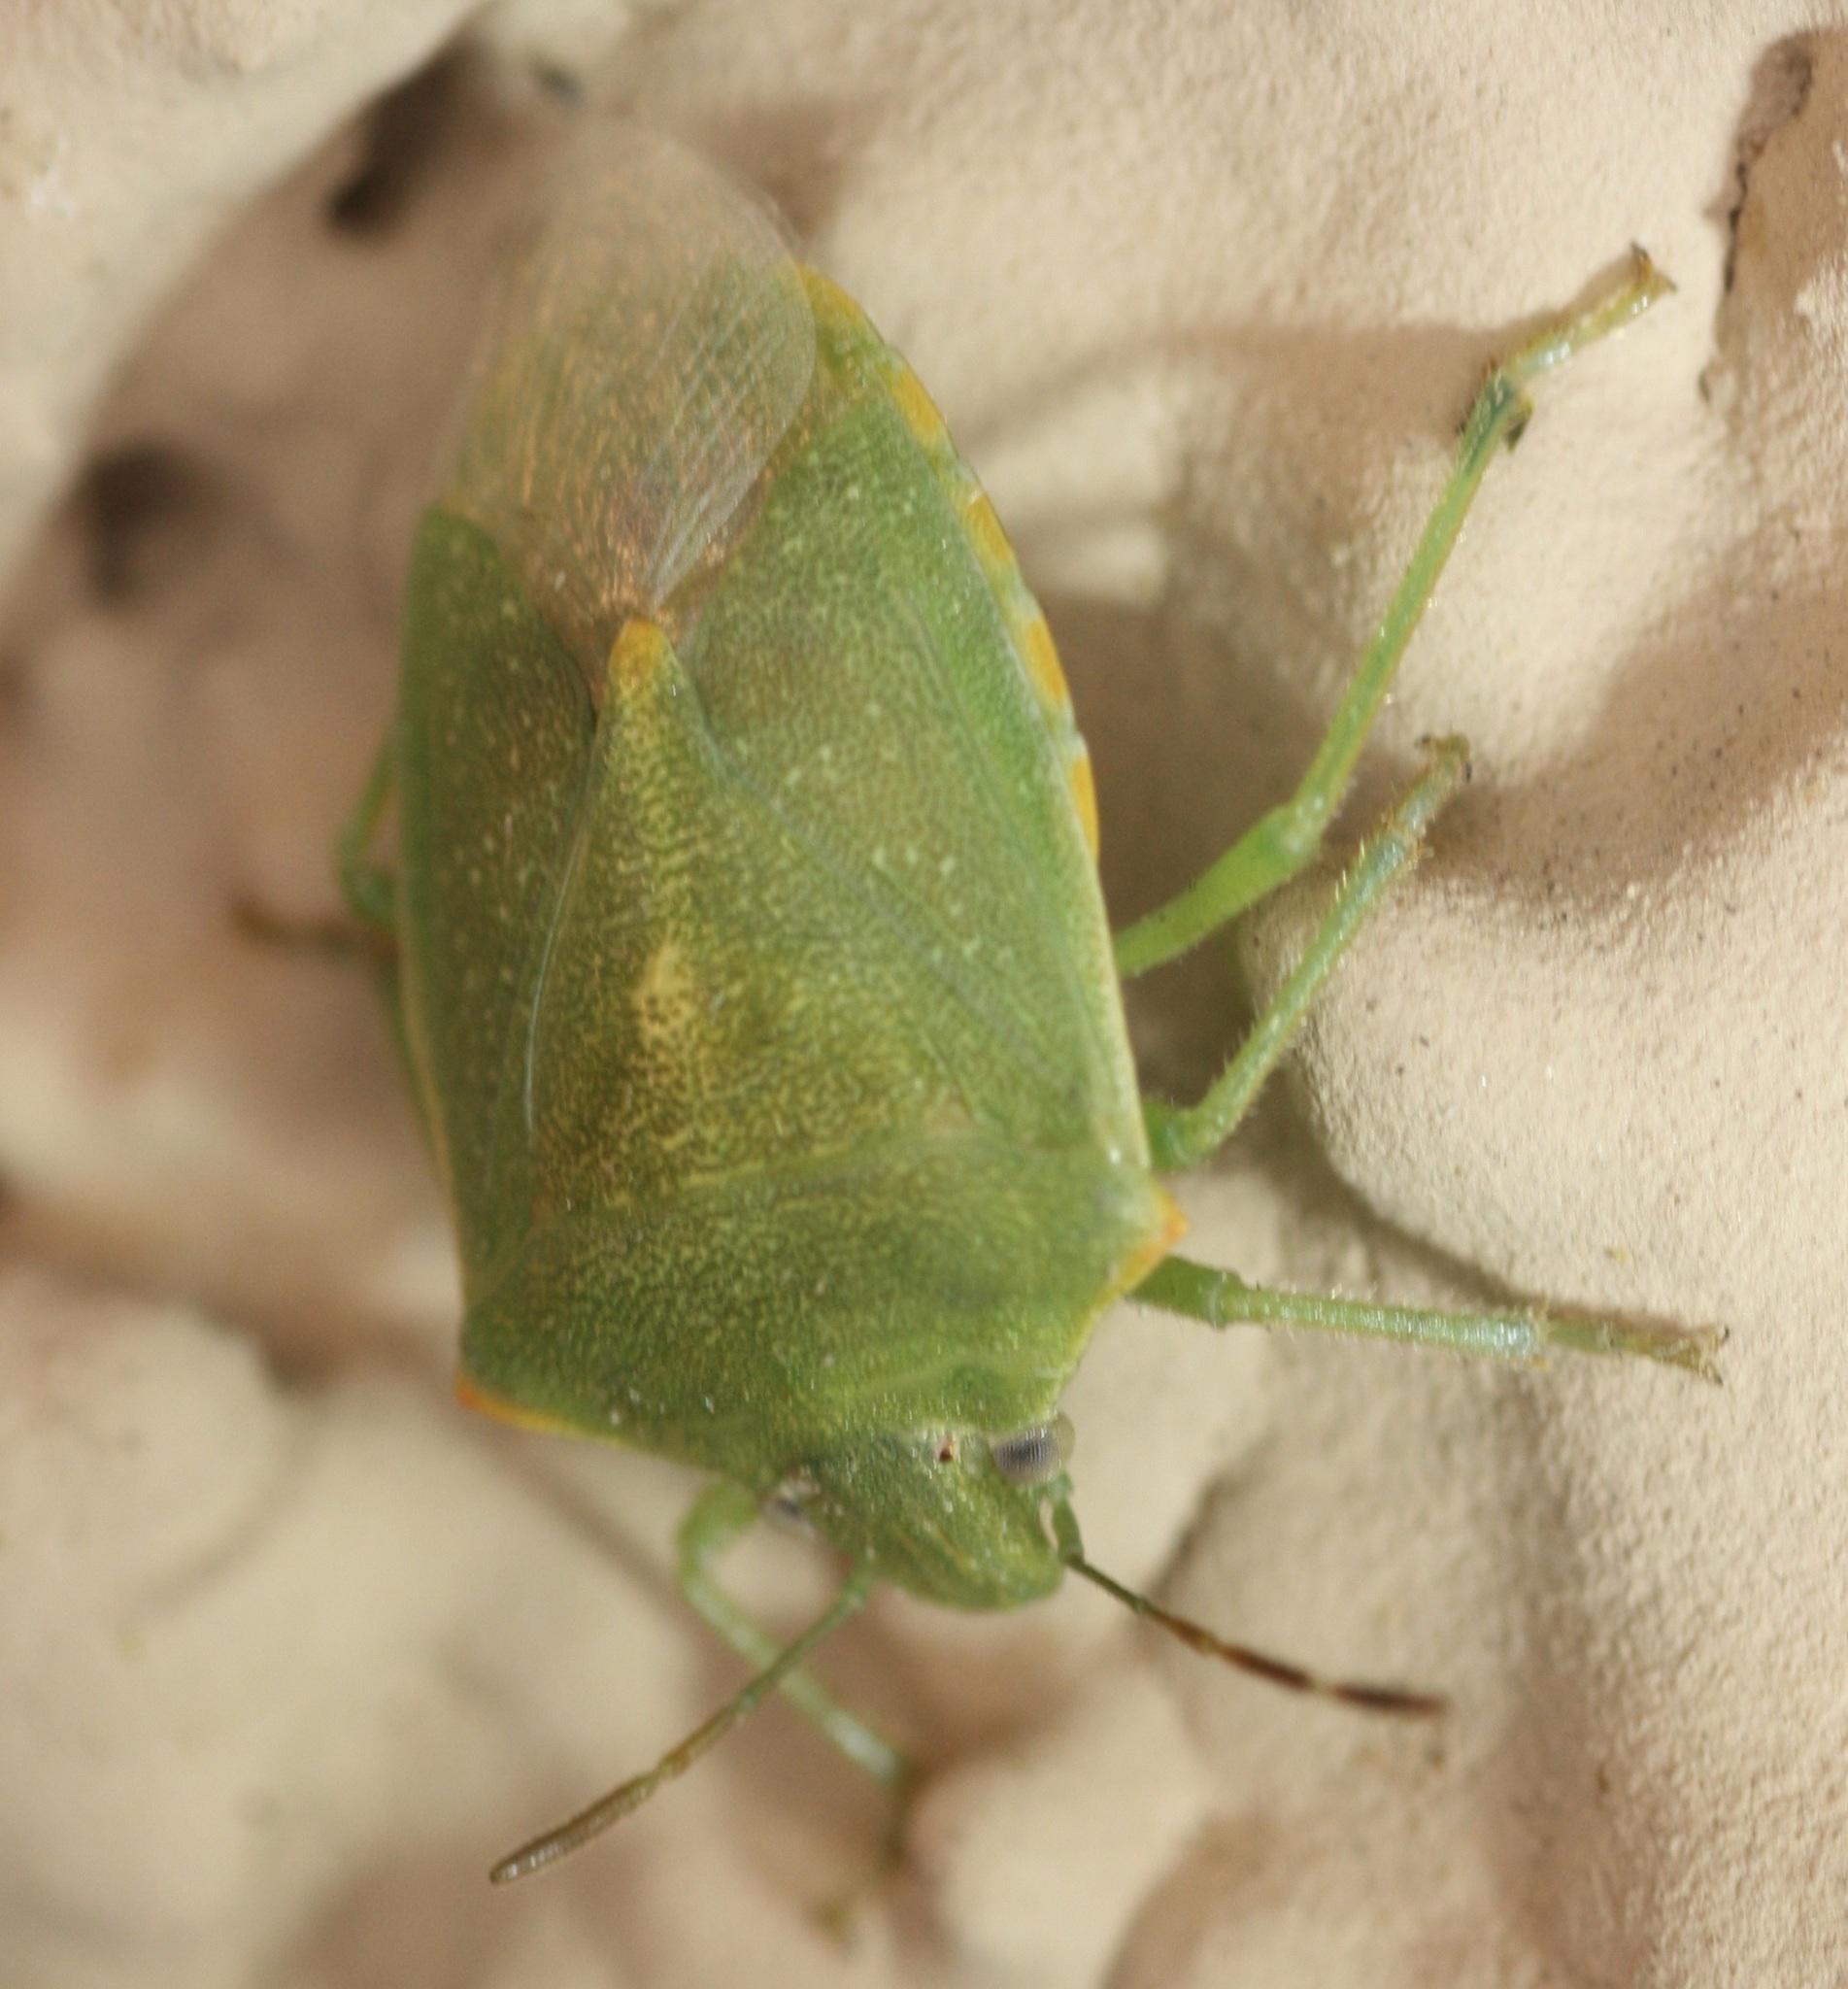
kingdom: Animalia
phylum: Arthropoda
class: Insecta
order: Hemiptera
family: Pentatomidae
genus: Thyanta
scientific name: Thyanta accerra
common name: Stink bug
